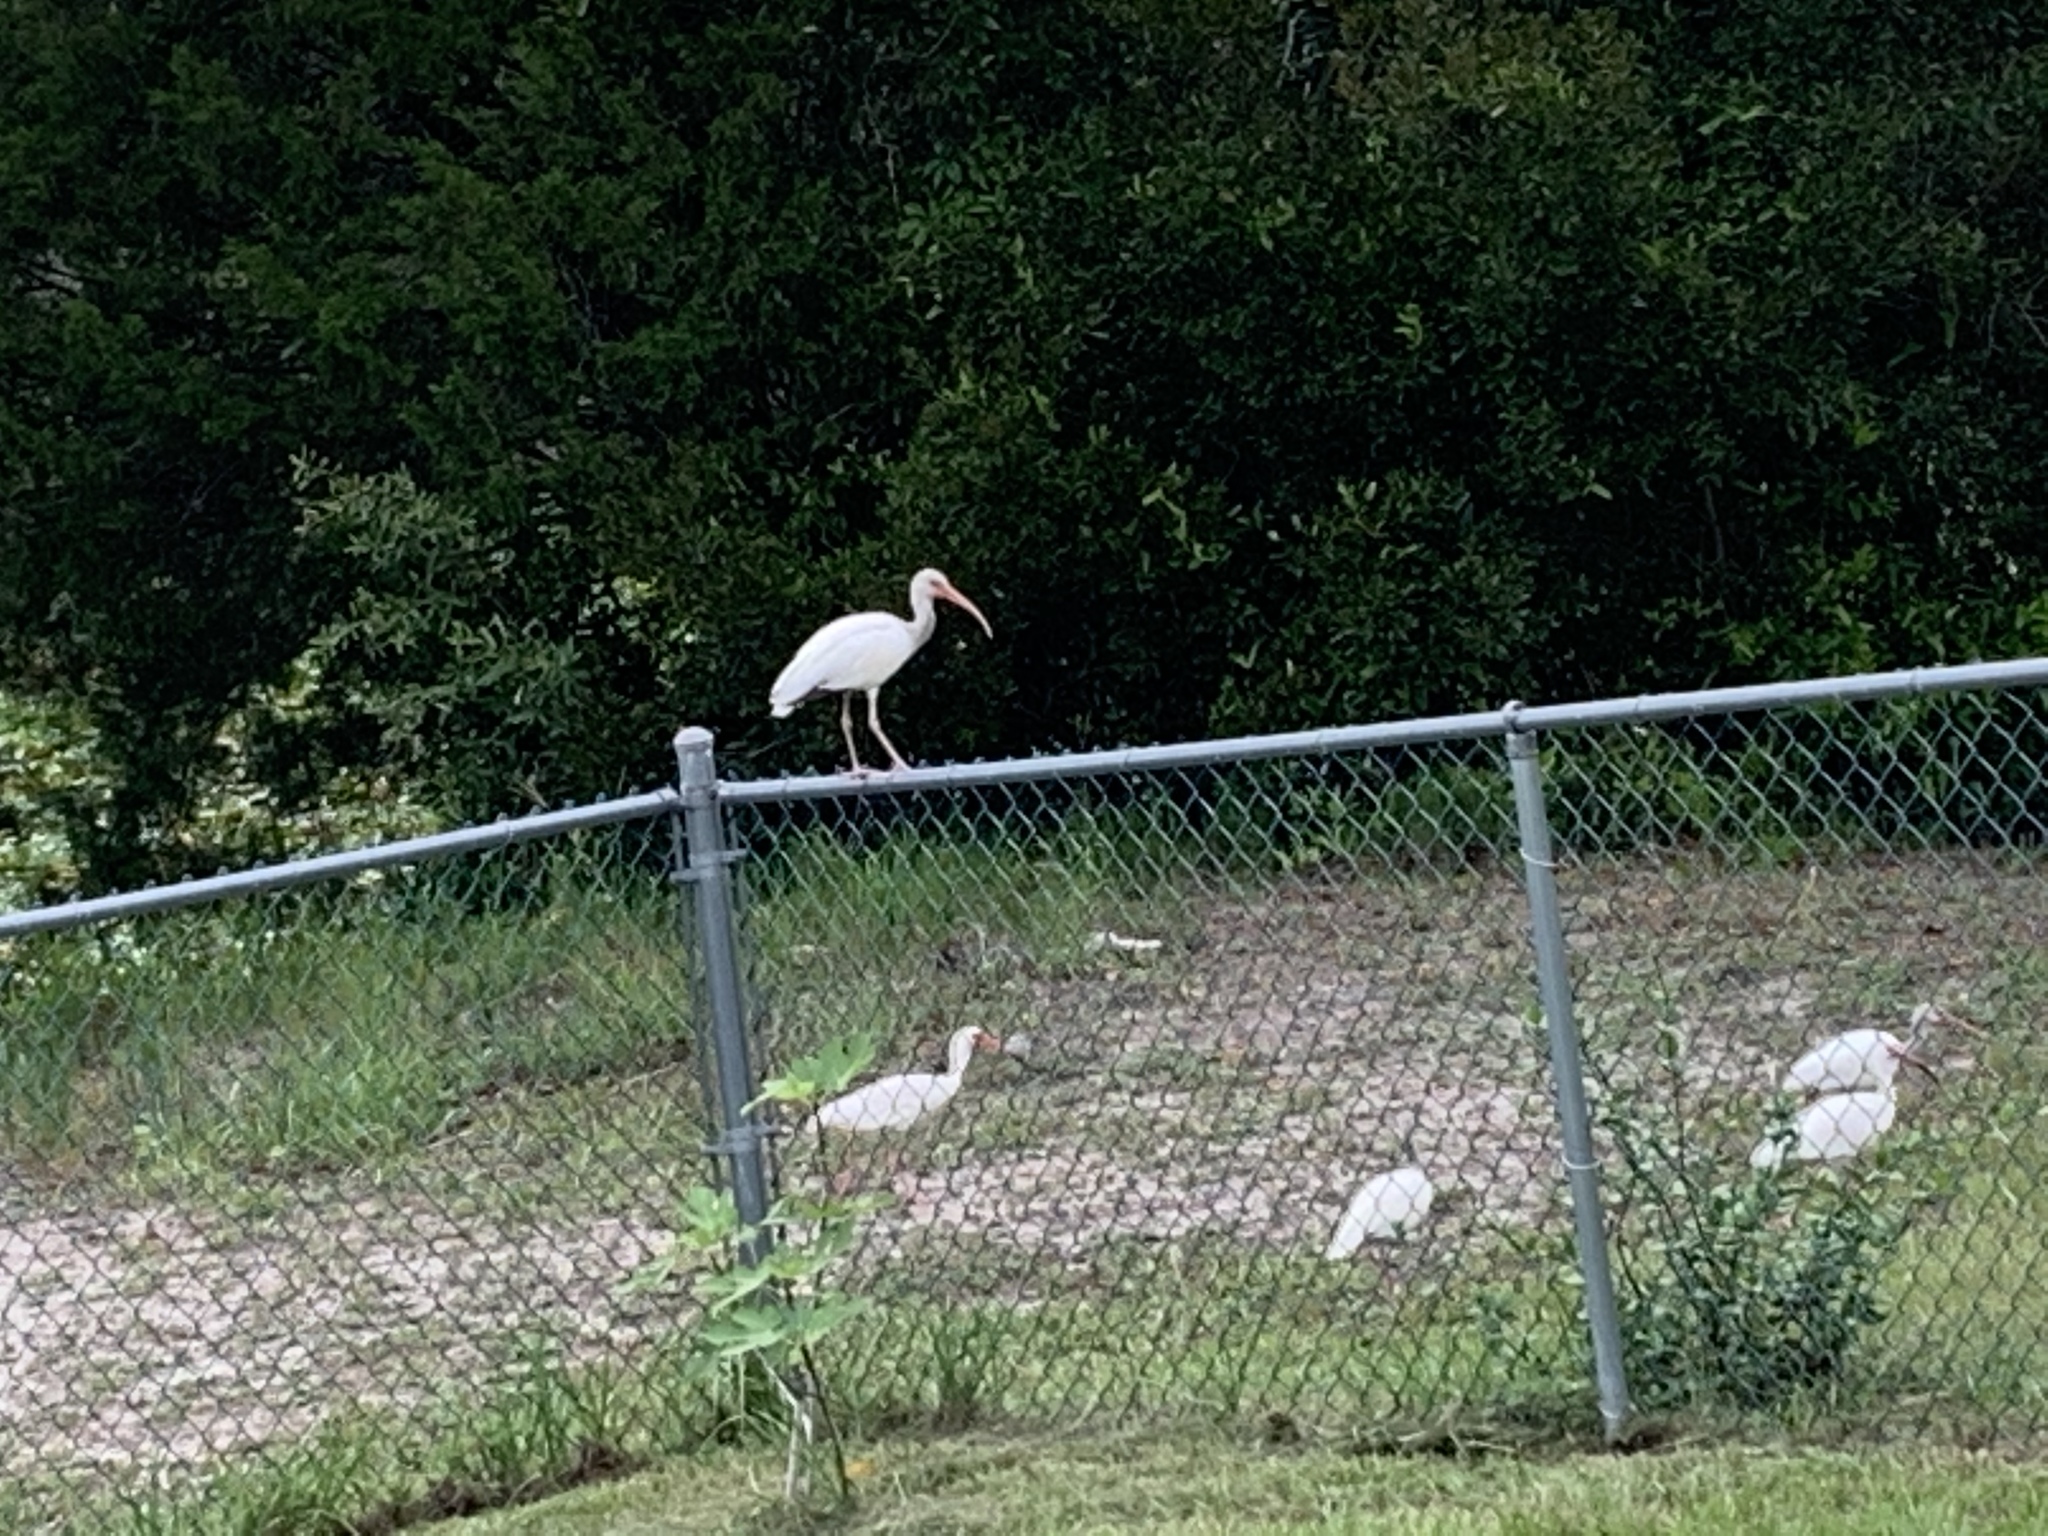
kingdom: Animalia
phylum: Chordata
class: Aves
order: Pelecaniformes
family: Threskiornithidae
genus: Eudocimus
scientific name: Eudocimus albus
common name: White ibis
